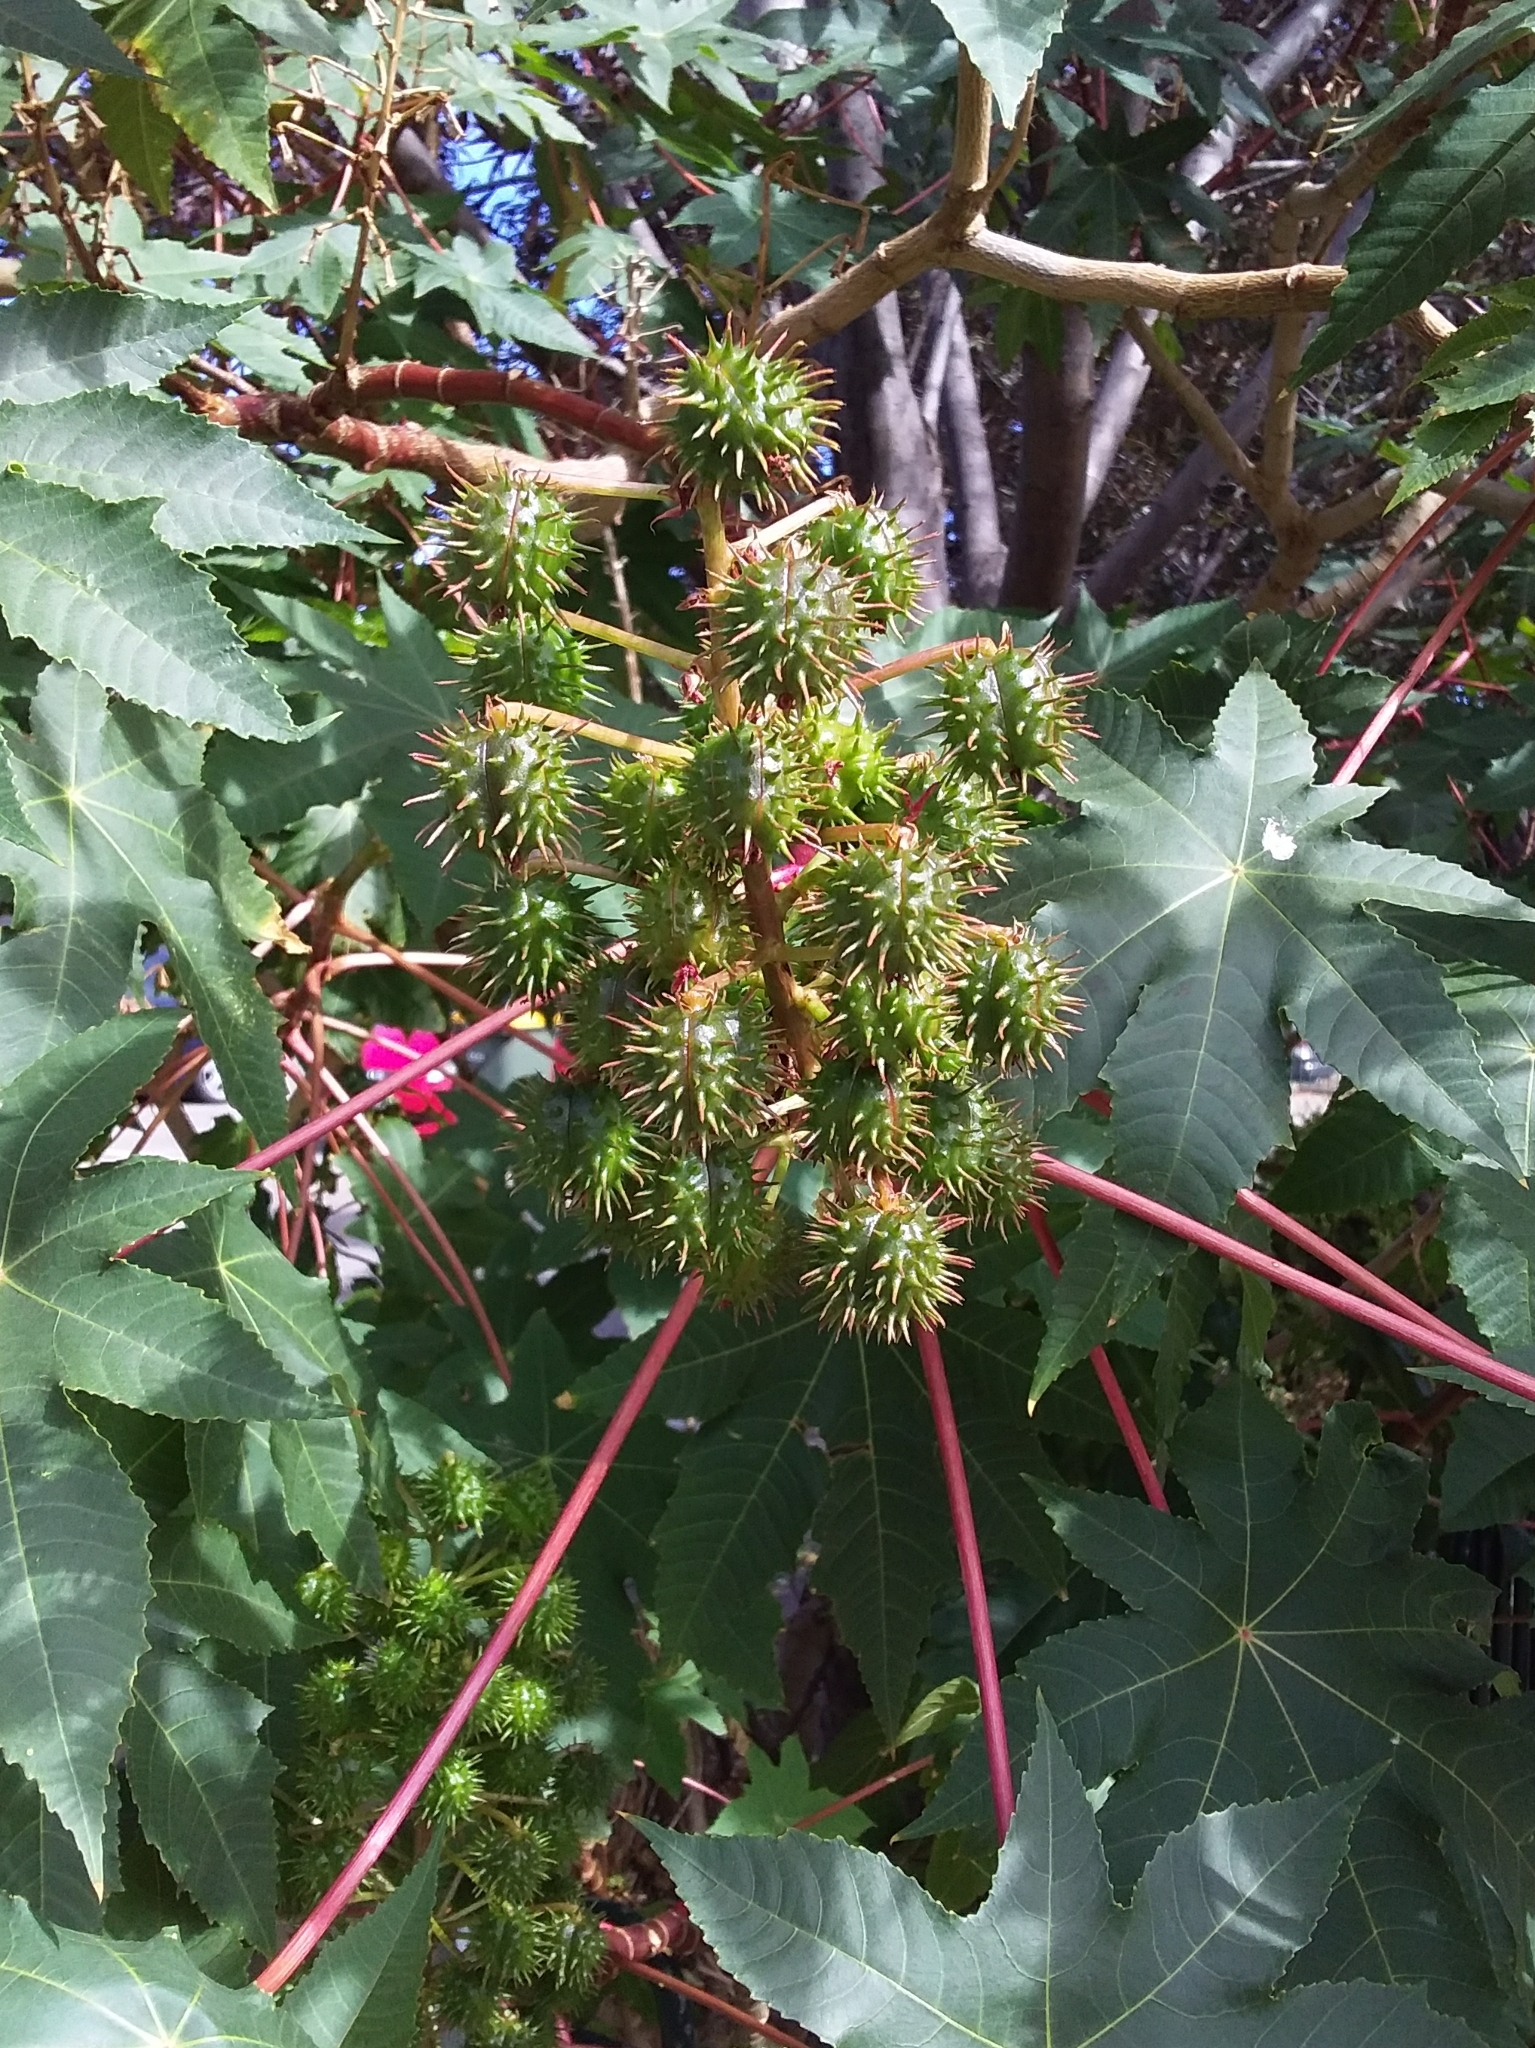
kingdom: Plantae
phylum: Tracheophyta
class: Magnoliopsida
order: Malpighiales
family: Euphorbiaceae
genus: Ricinus
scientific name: Ricinus communis
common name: Castor-oil-plant
